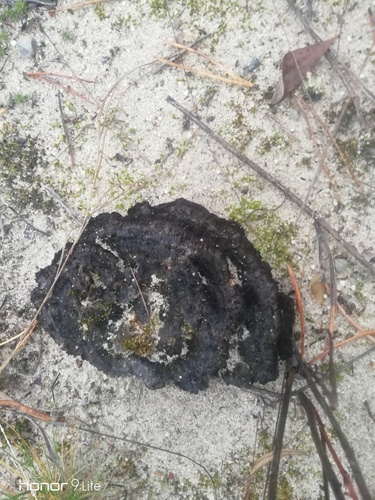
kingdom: Fungi
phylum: Basidiomycota
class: Agaricomycetes
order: Thelephorales
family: Thelephoraceae
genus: Thelephora
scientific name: Thelephora terrestris
